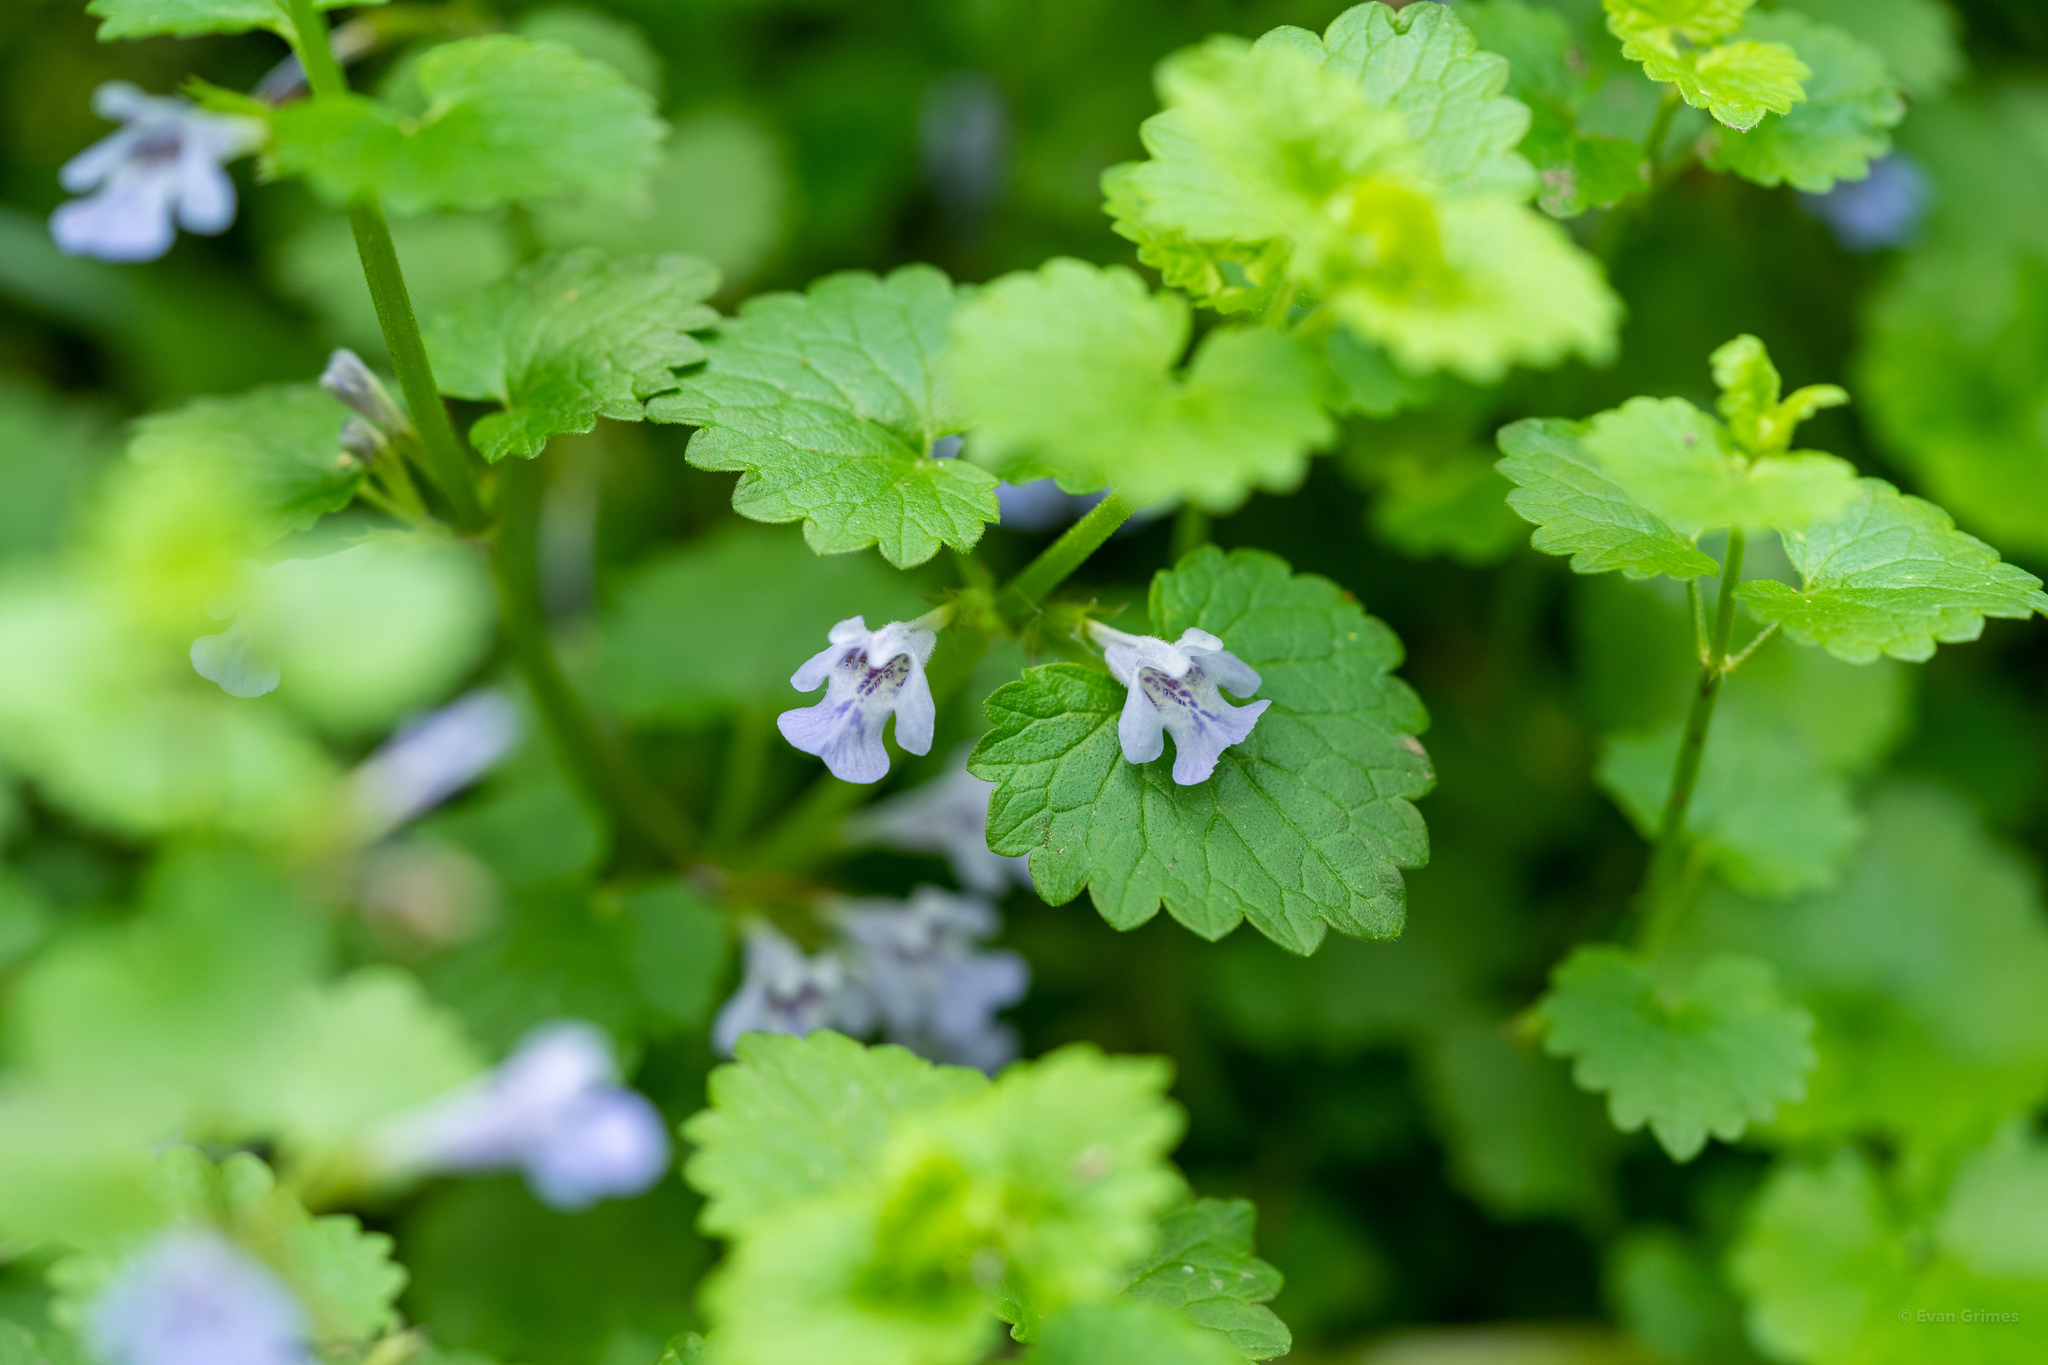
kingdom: Plantae
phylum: Tracheophyta
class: Magnoliopsida
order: Lamiales
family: Lamiaceae
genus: Glechoma
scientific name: Glechoma hederacea
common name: Ground ivy
